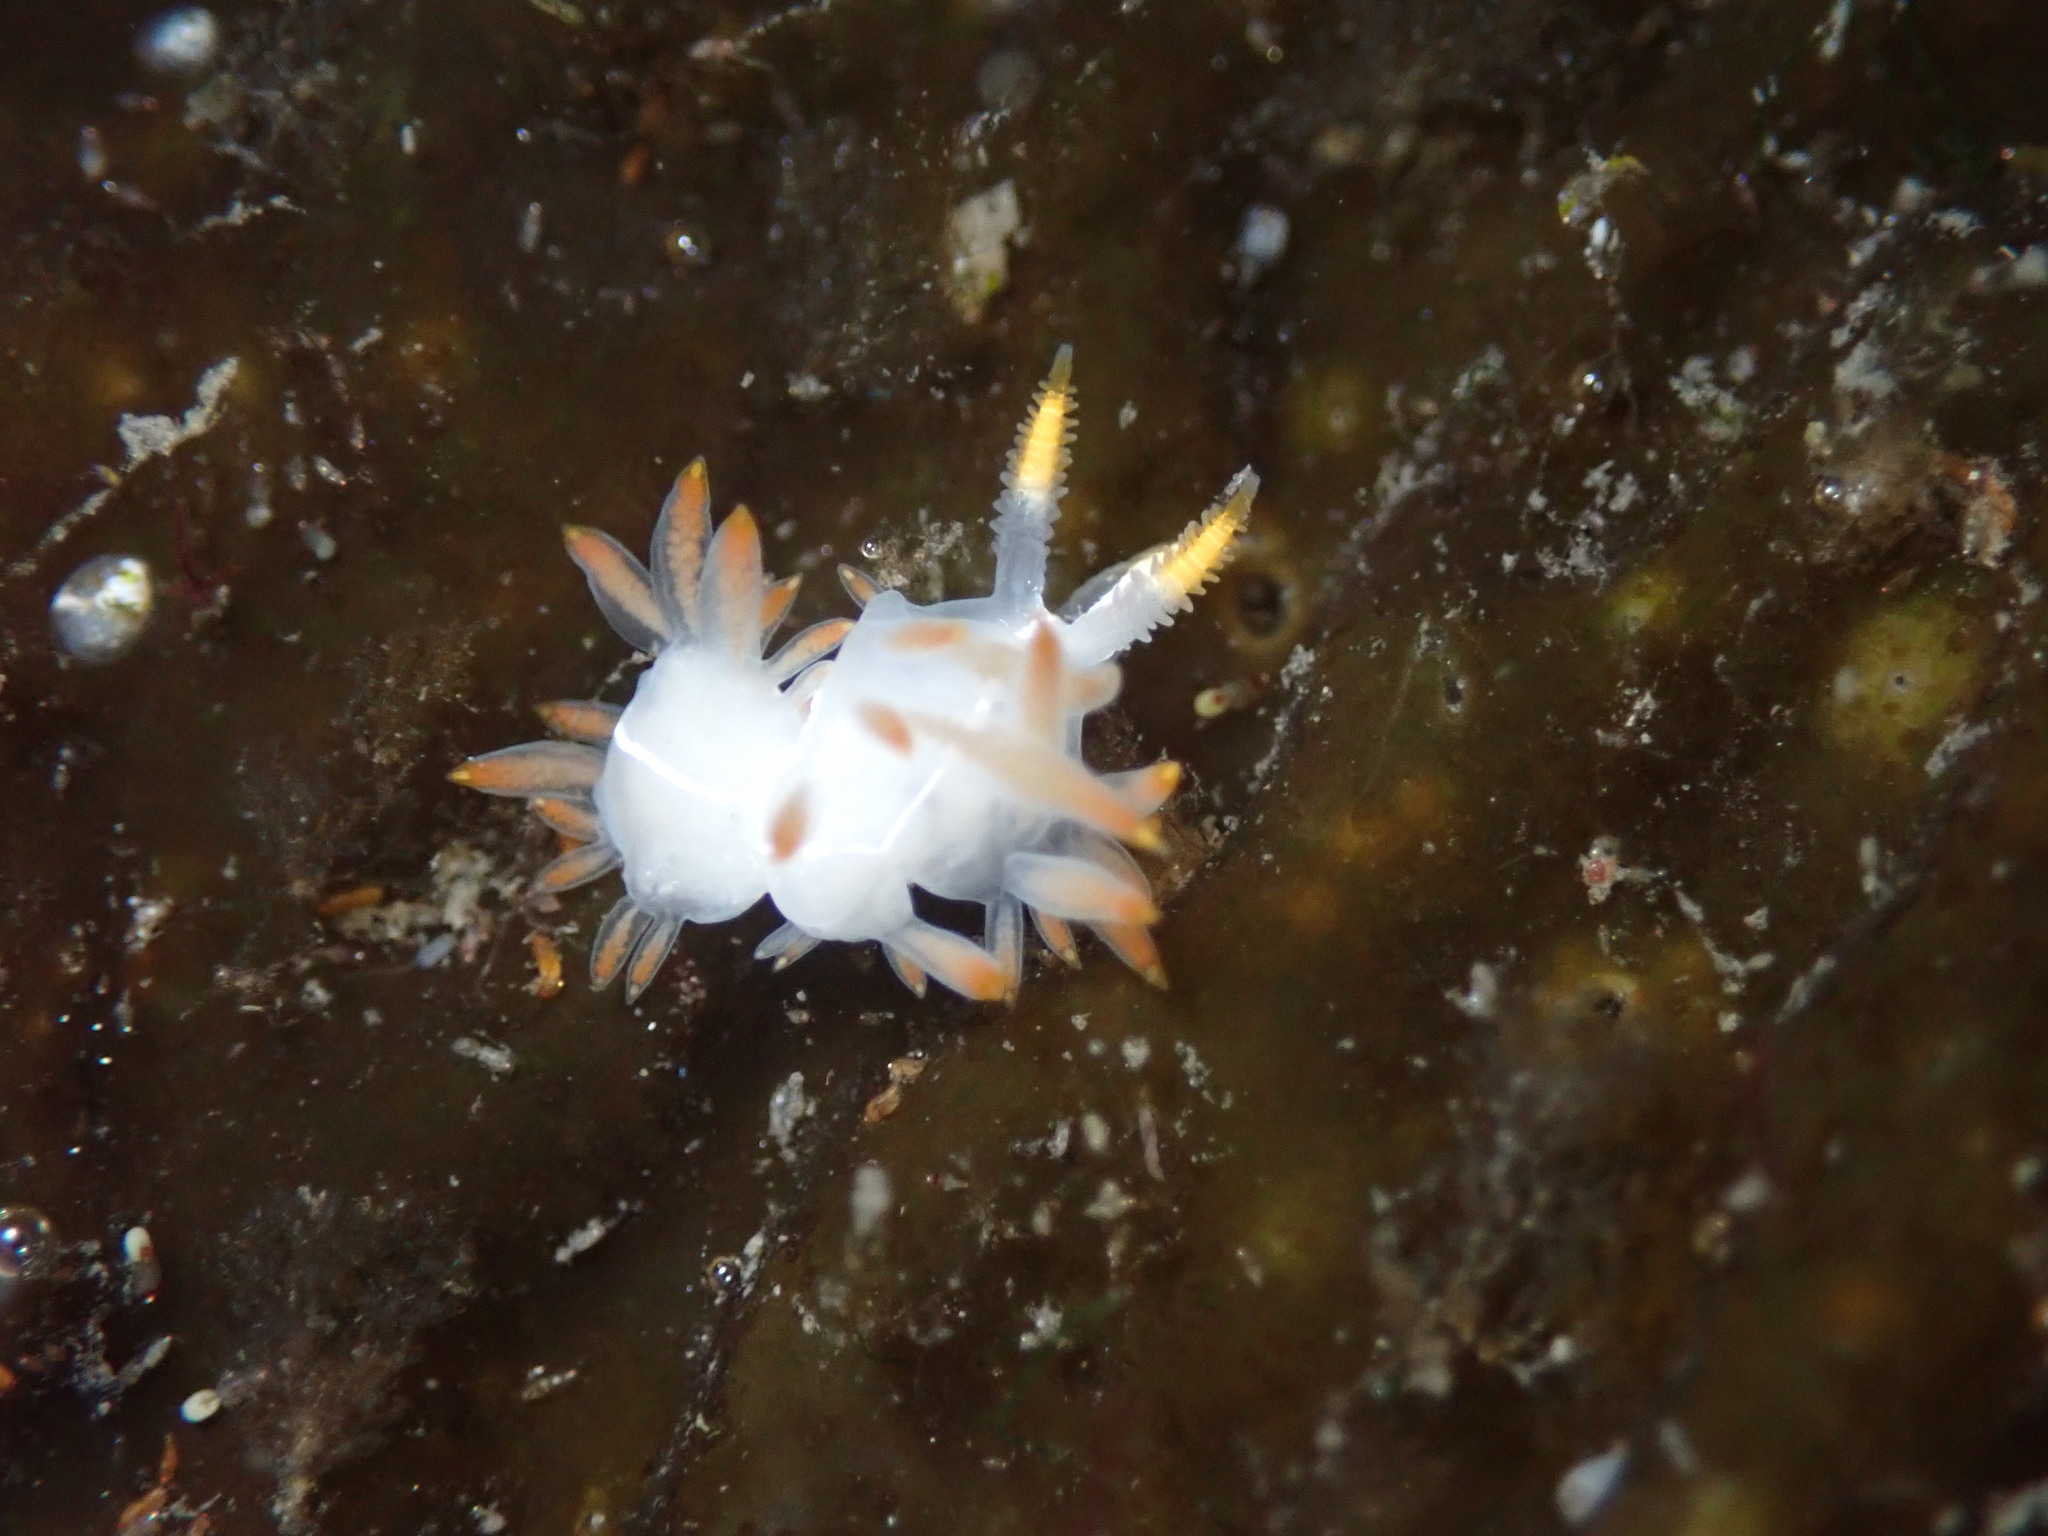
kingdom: Animalia
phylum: Mollusca
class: Gastropoda
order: Nudibranchia
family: Coryphellidae
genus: Coryphella
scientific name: Coryphella trilineata
